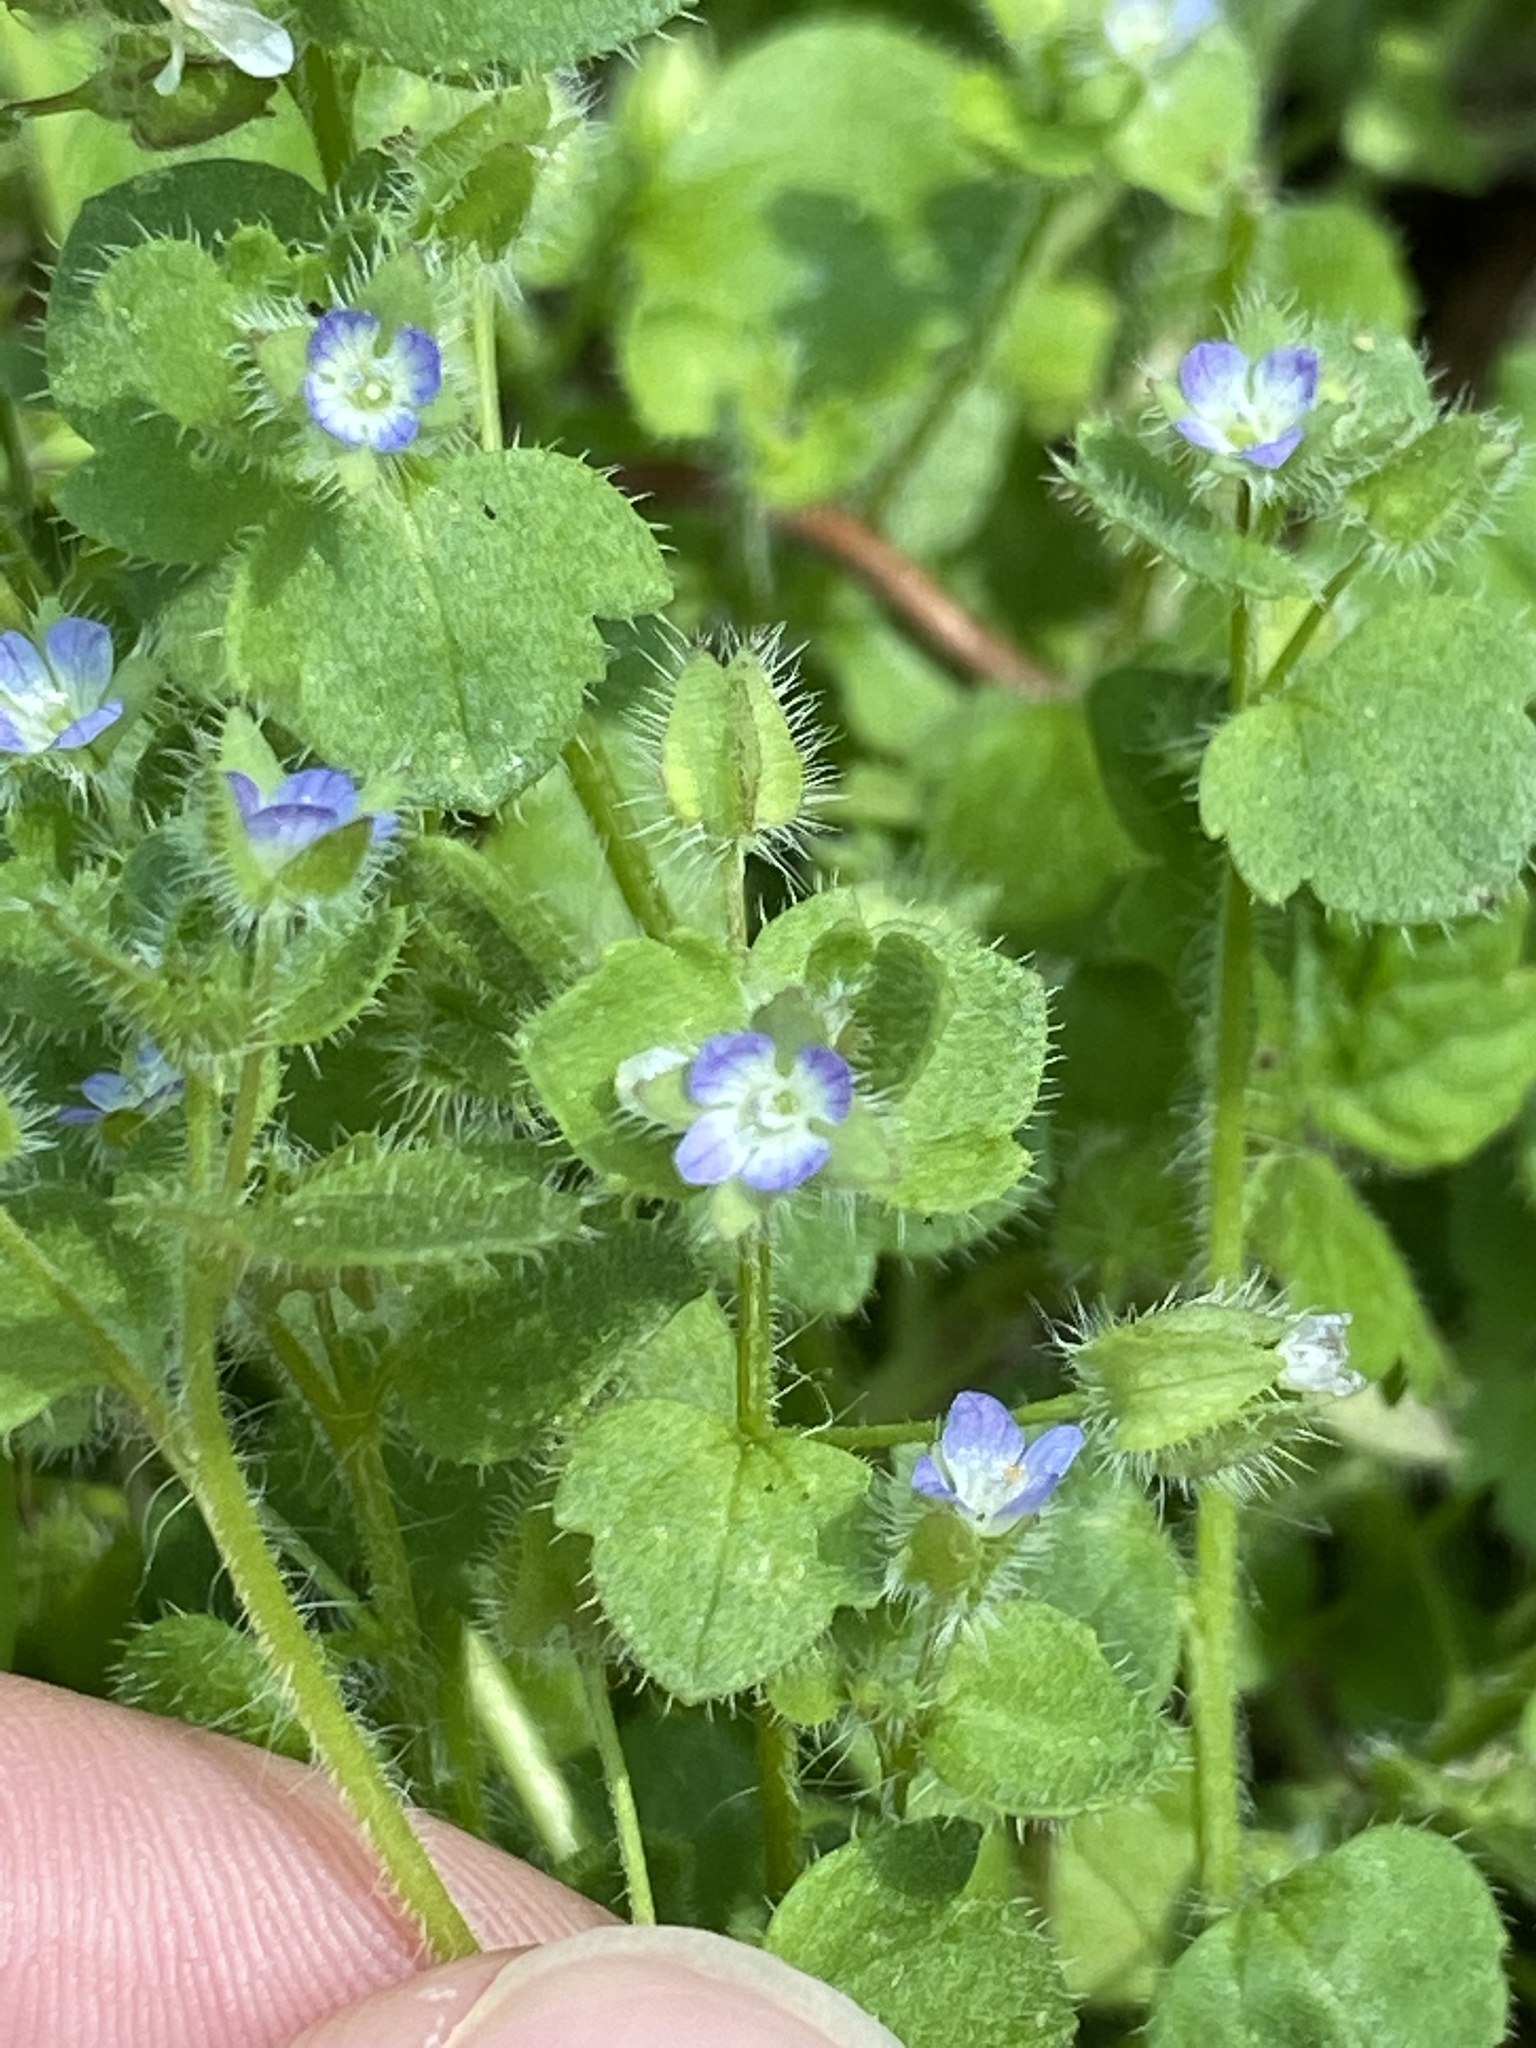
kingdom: Plantae
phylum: Tracheophyta
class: Magnoliopsida
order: Lamiales
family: Plantaginaceae
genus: Veronica
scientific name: Veronica hederifolia
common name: Ivy-leaved speedwell
